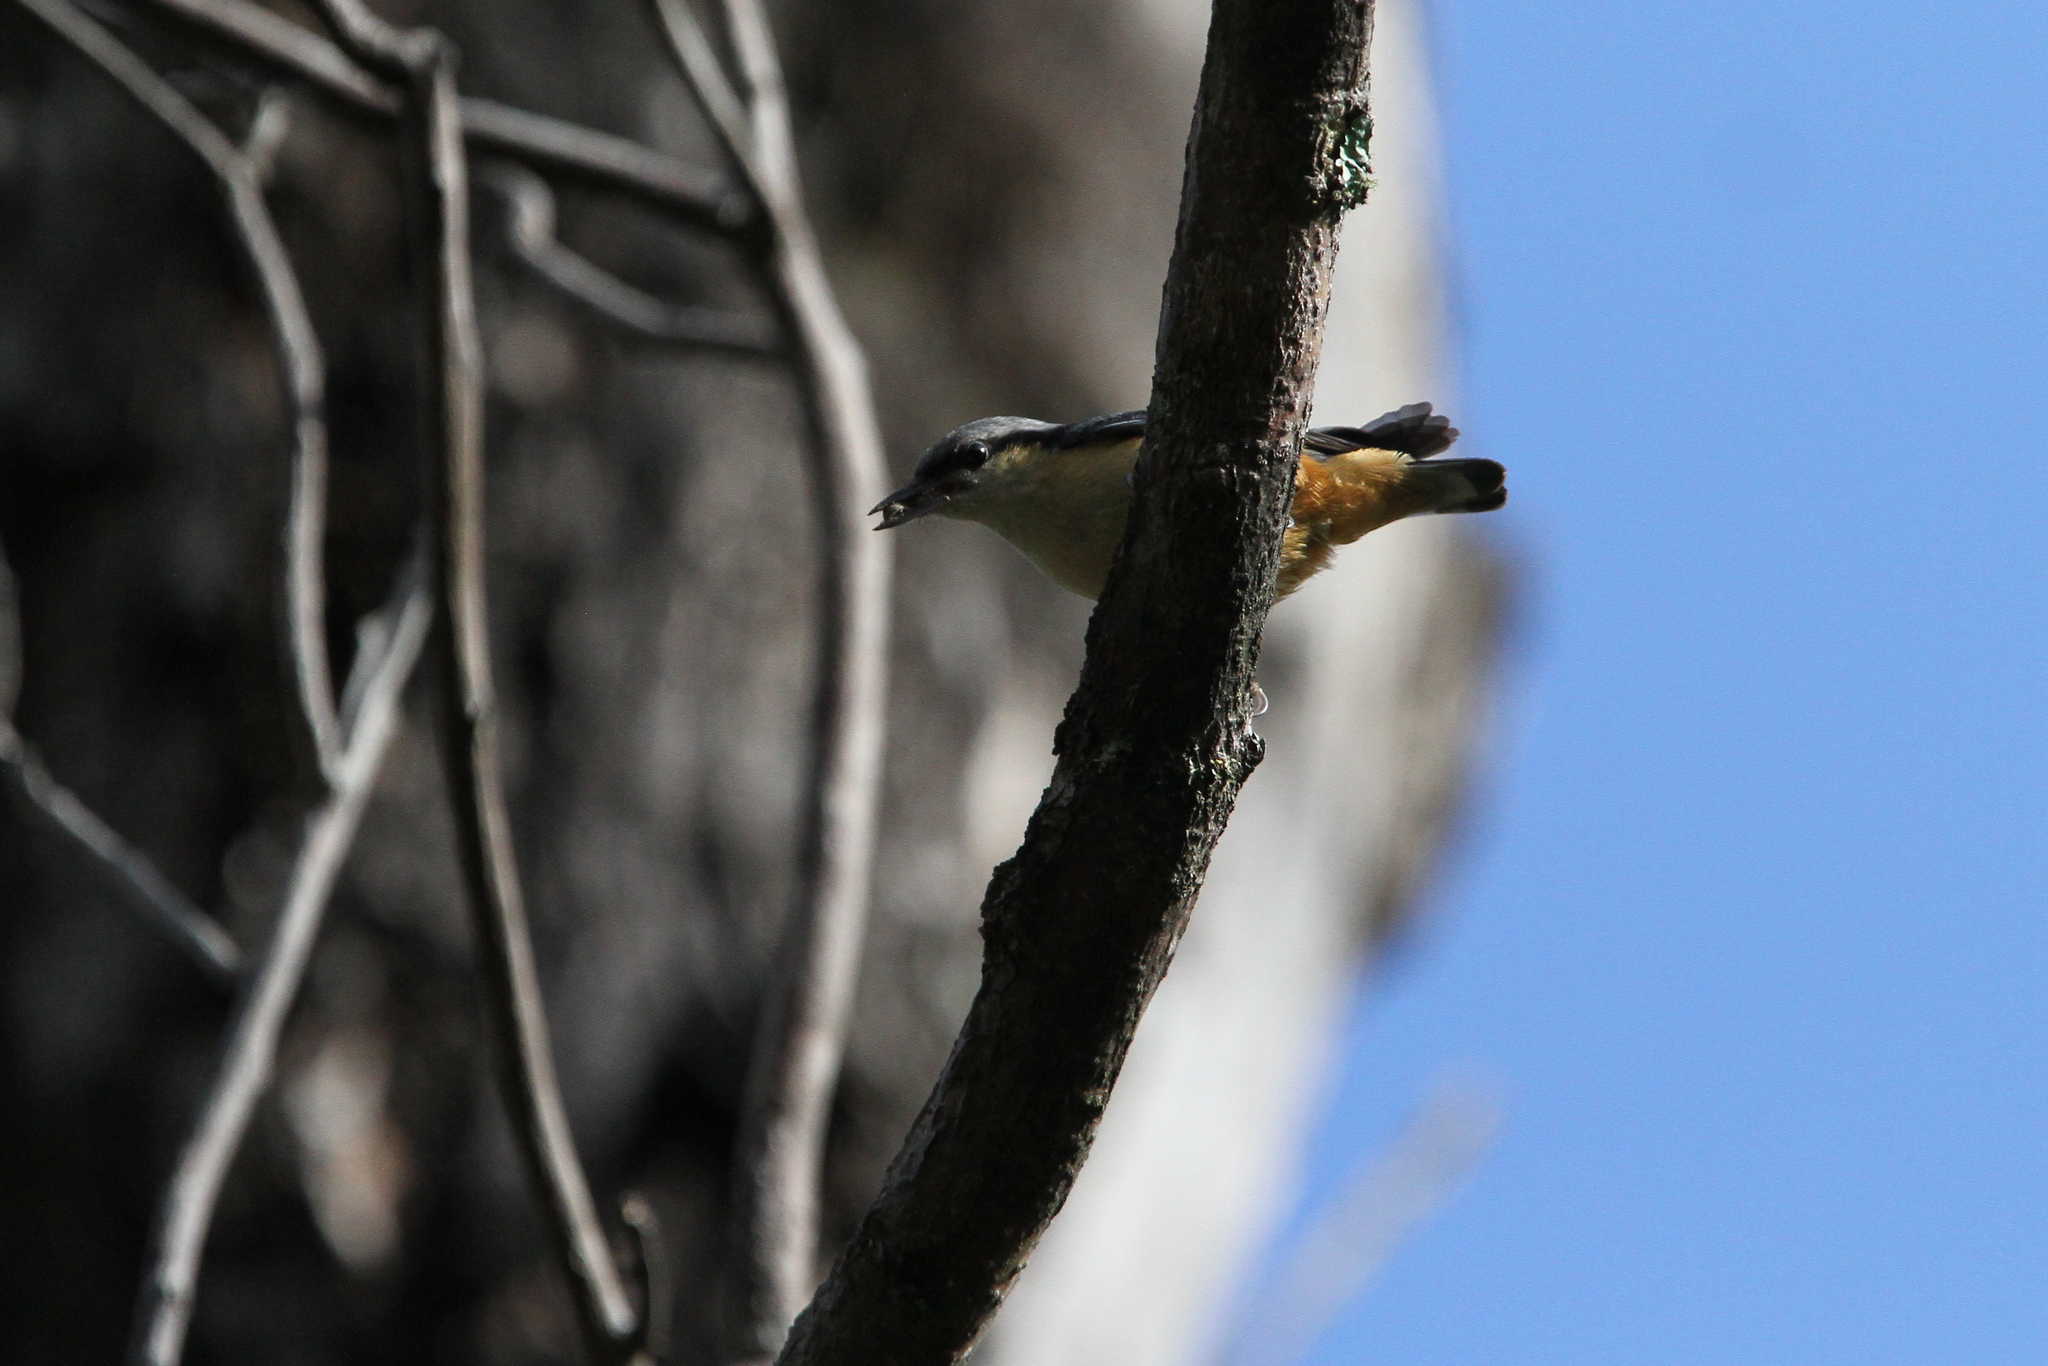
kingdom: Animalia
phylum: Chordata
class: Aves
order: Passeriformes
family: Sittidae
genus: Sitta
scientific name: Sitta himalayensis
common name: White-tailed nuthatch
